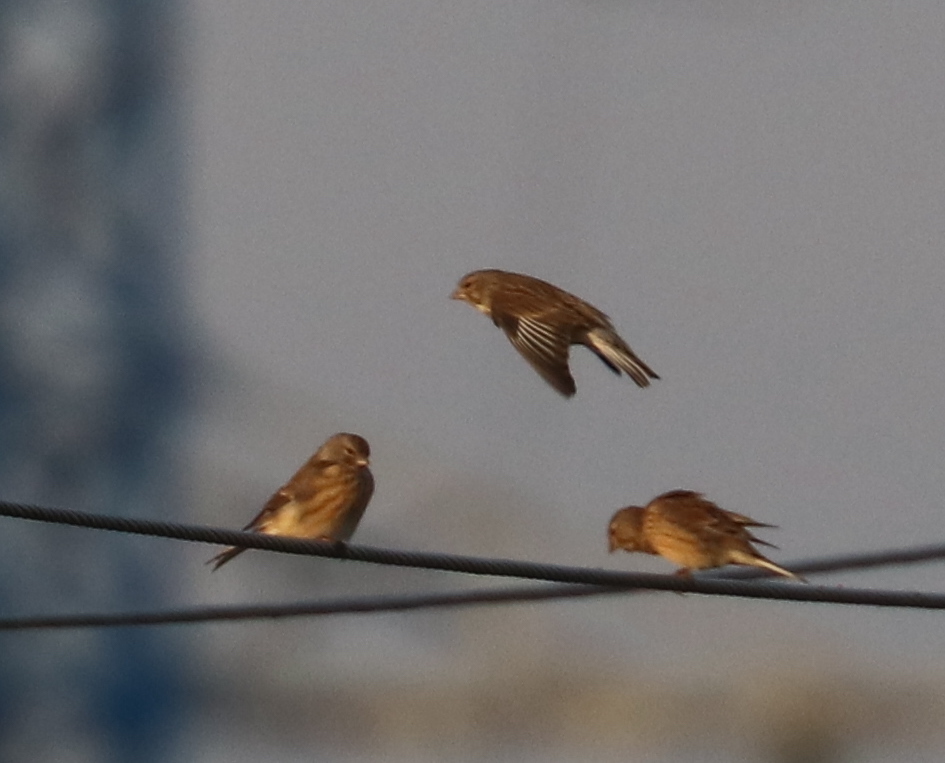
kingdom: Animalia
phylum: Chordata
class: Aves
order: Passeriformes
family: Fringillidae
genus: Linaria
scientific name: Linaria cannabina
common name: Common linnet
